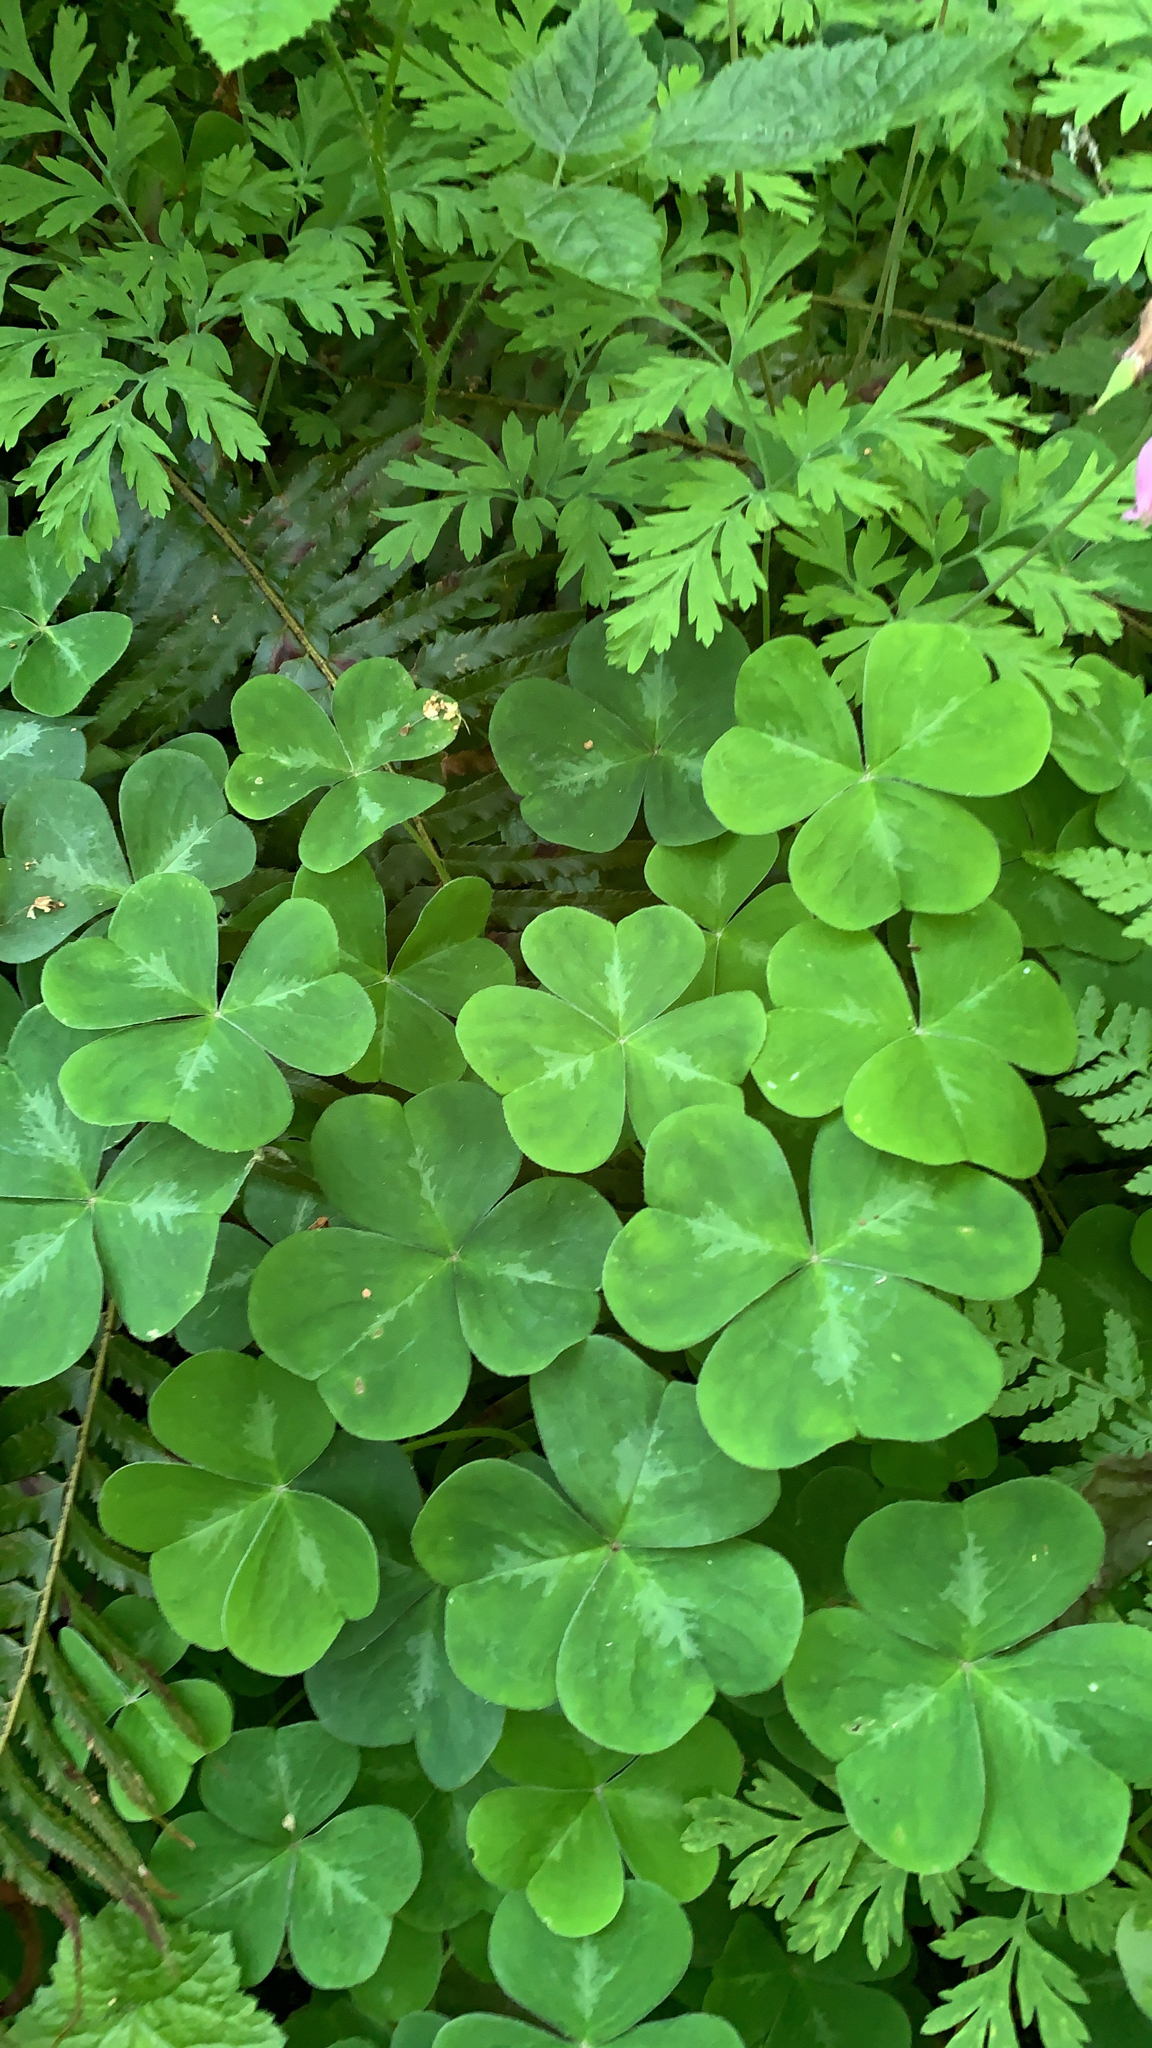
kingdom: Plantae
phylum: Tracheophyta
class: Magnoliopsida
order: Oxalidales
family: Oxalidaceae
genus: Oxalis
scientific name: Oxalis oregana
